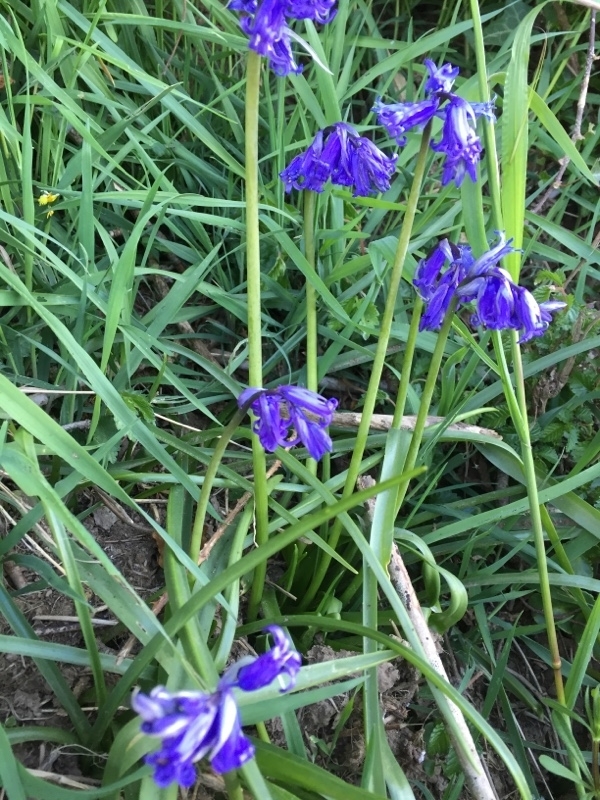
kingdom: Plantae
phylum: Tracheophyta
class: Liliopsida
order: Asparagales
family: Asparagaceae
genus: Hyacinthoides
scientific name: Hyacinthoides non-scripta
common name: Bluebell
